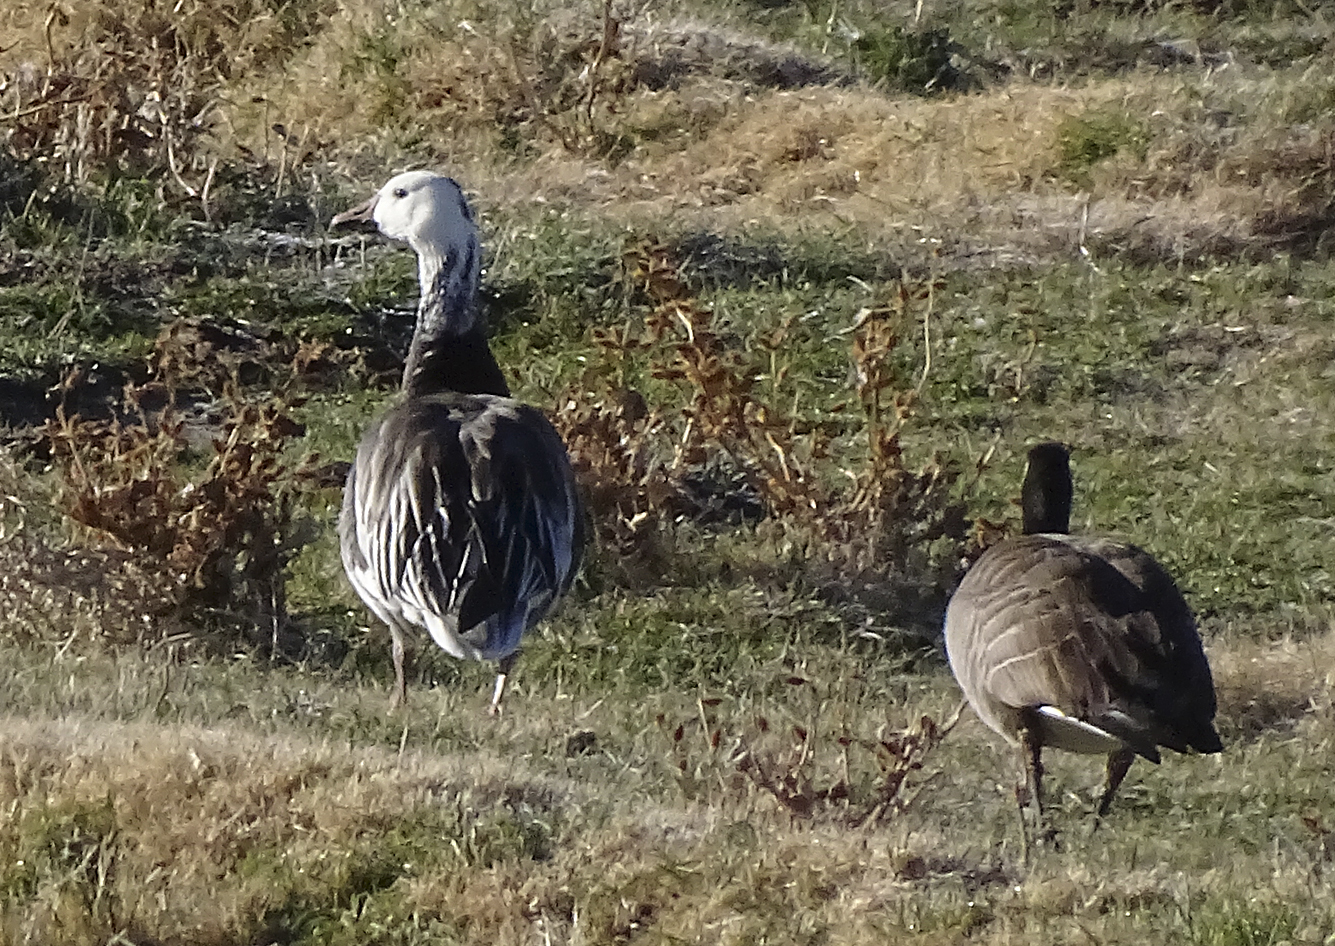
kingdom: Animalia
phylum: Chordata
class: Aves
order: Anseriformes
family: Anatidae
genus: Anser
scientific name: Anser caerulescens
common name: Snow goose
